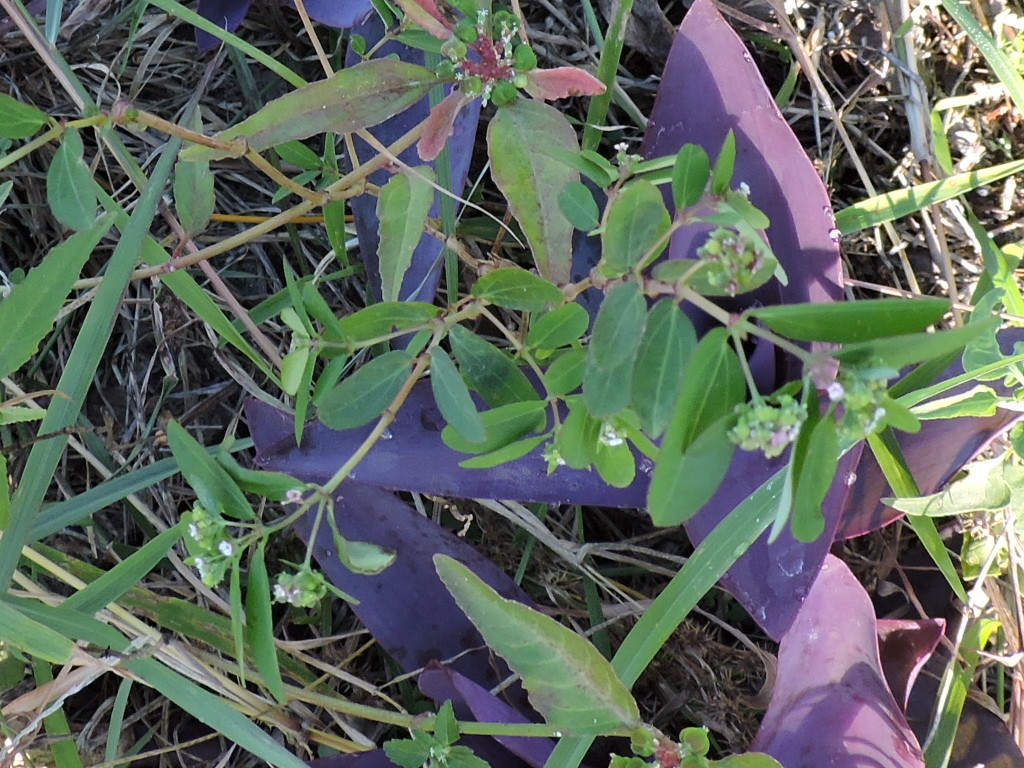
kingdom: Plantae
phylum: Tracheophyta
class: Magnoliopsida
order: Malpighiales
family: Euphorbiaceae
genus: Euphorbia
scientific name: Euphorbia hypericifolia
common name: Graceful sandmat
